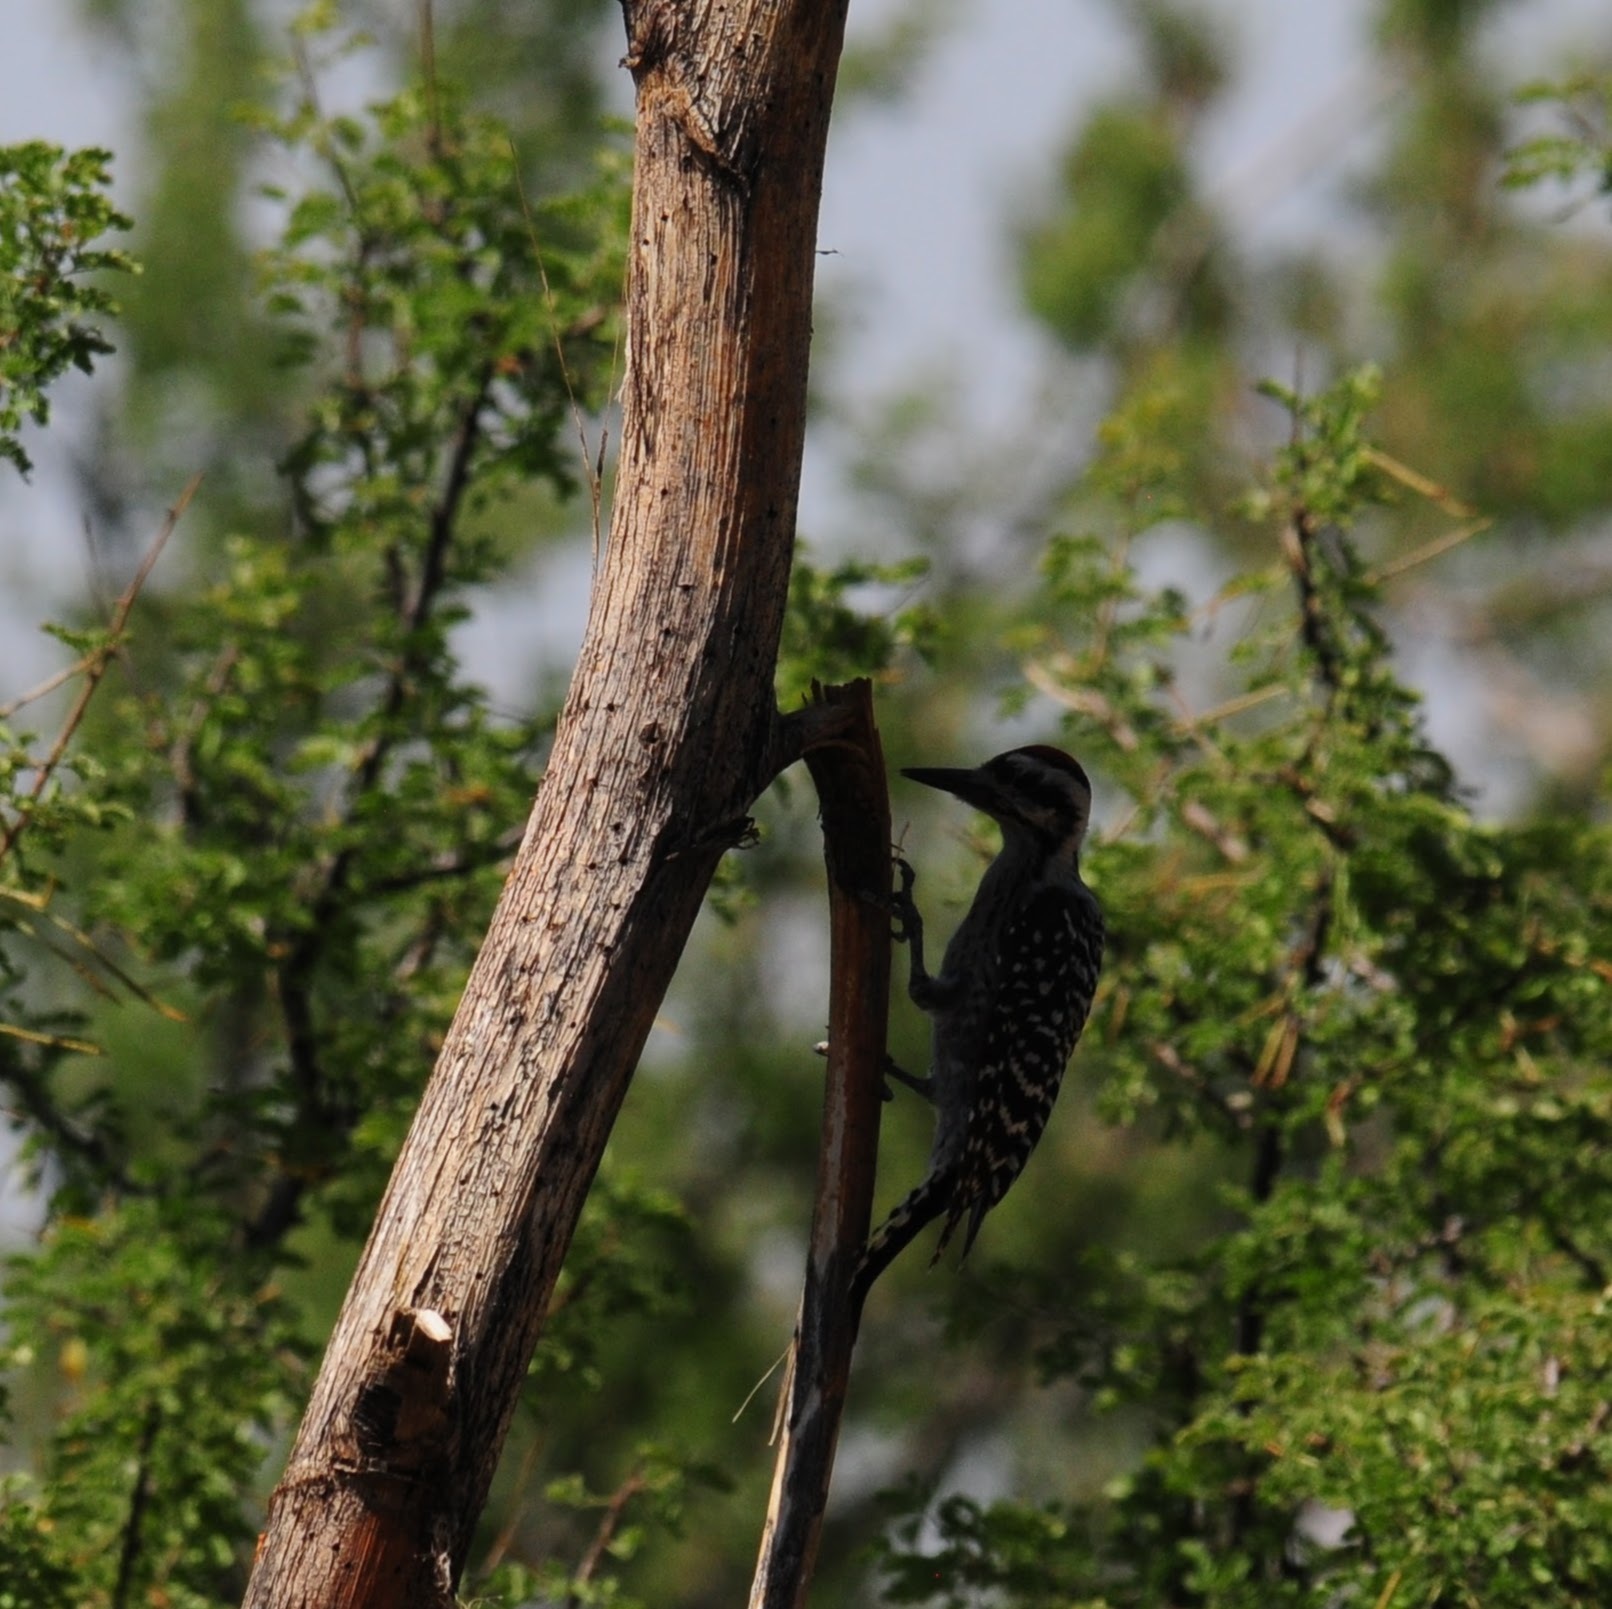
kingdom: Animalia
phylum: Chordata
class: Aves
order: Piciformes
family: Picidae
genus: Dryobates
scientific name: Dryobates scalaris
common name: Ladder-backed woodpecker
